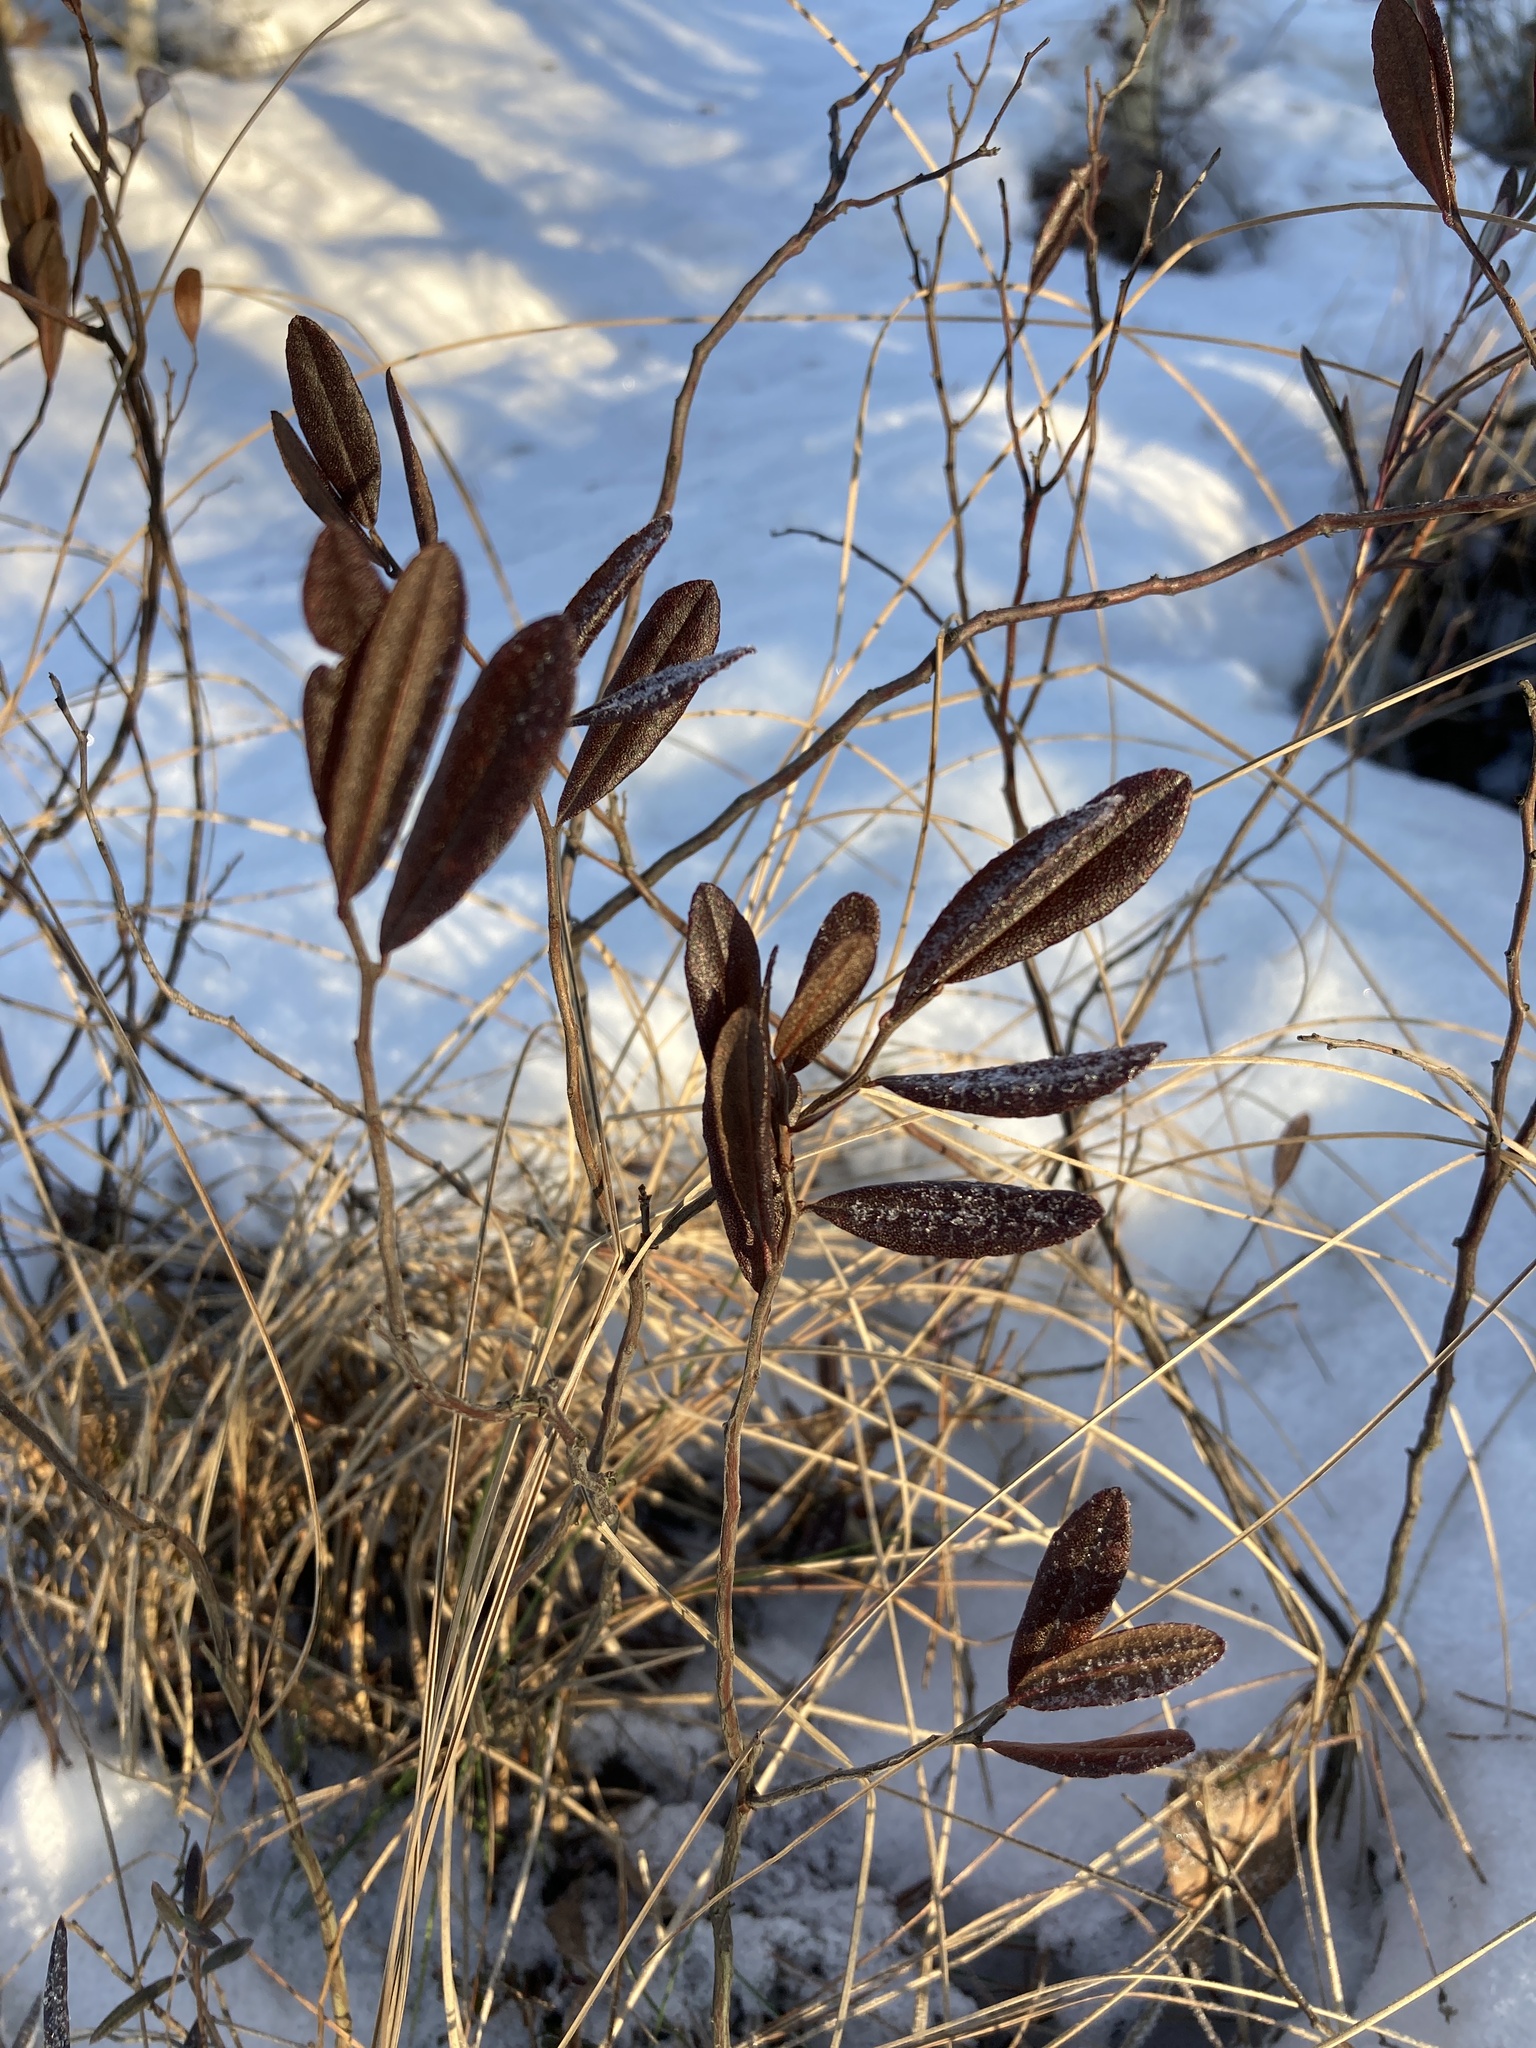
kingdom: Plantae
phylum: Tracheophyta
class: Magnoliopsida
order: Ericales
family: Ericaceae
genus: Chamaedaphne
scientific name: Chamaedaphne calyculata
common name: Leatherleaf
